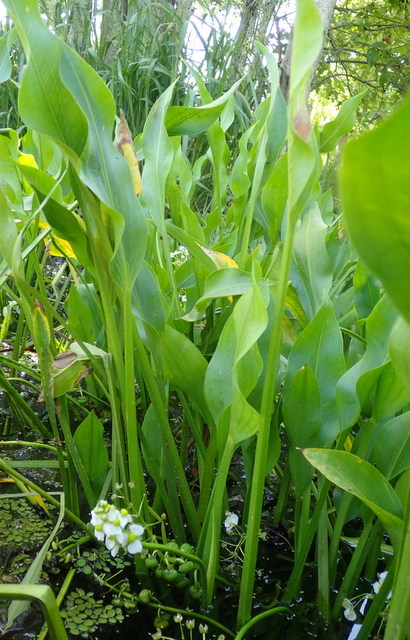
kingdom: Plantae
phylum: Tracheophyta
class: Liliopsida
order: Alismatales
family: Alismataceae
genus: Sagittaria
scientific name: Sagittaria platyphylla
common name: Broad-leaf arrowhead
